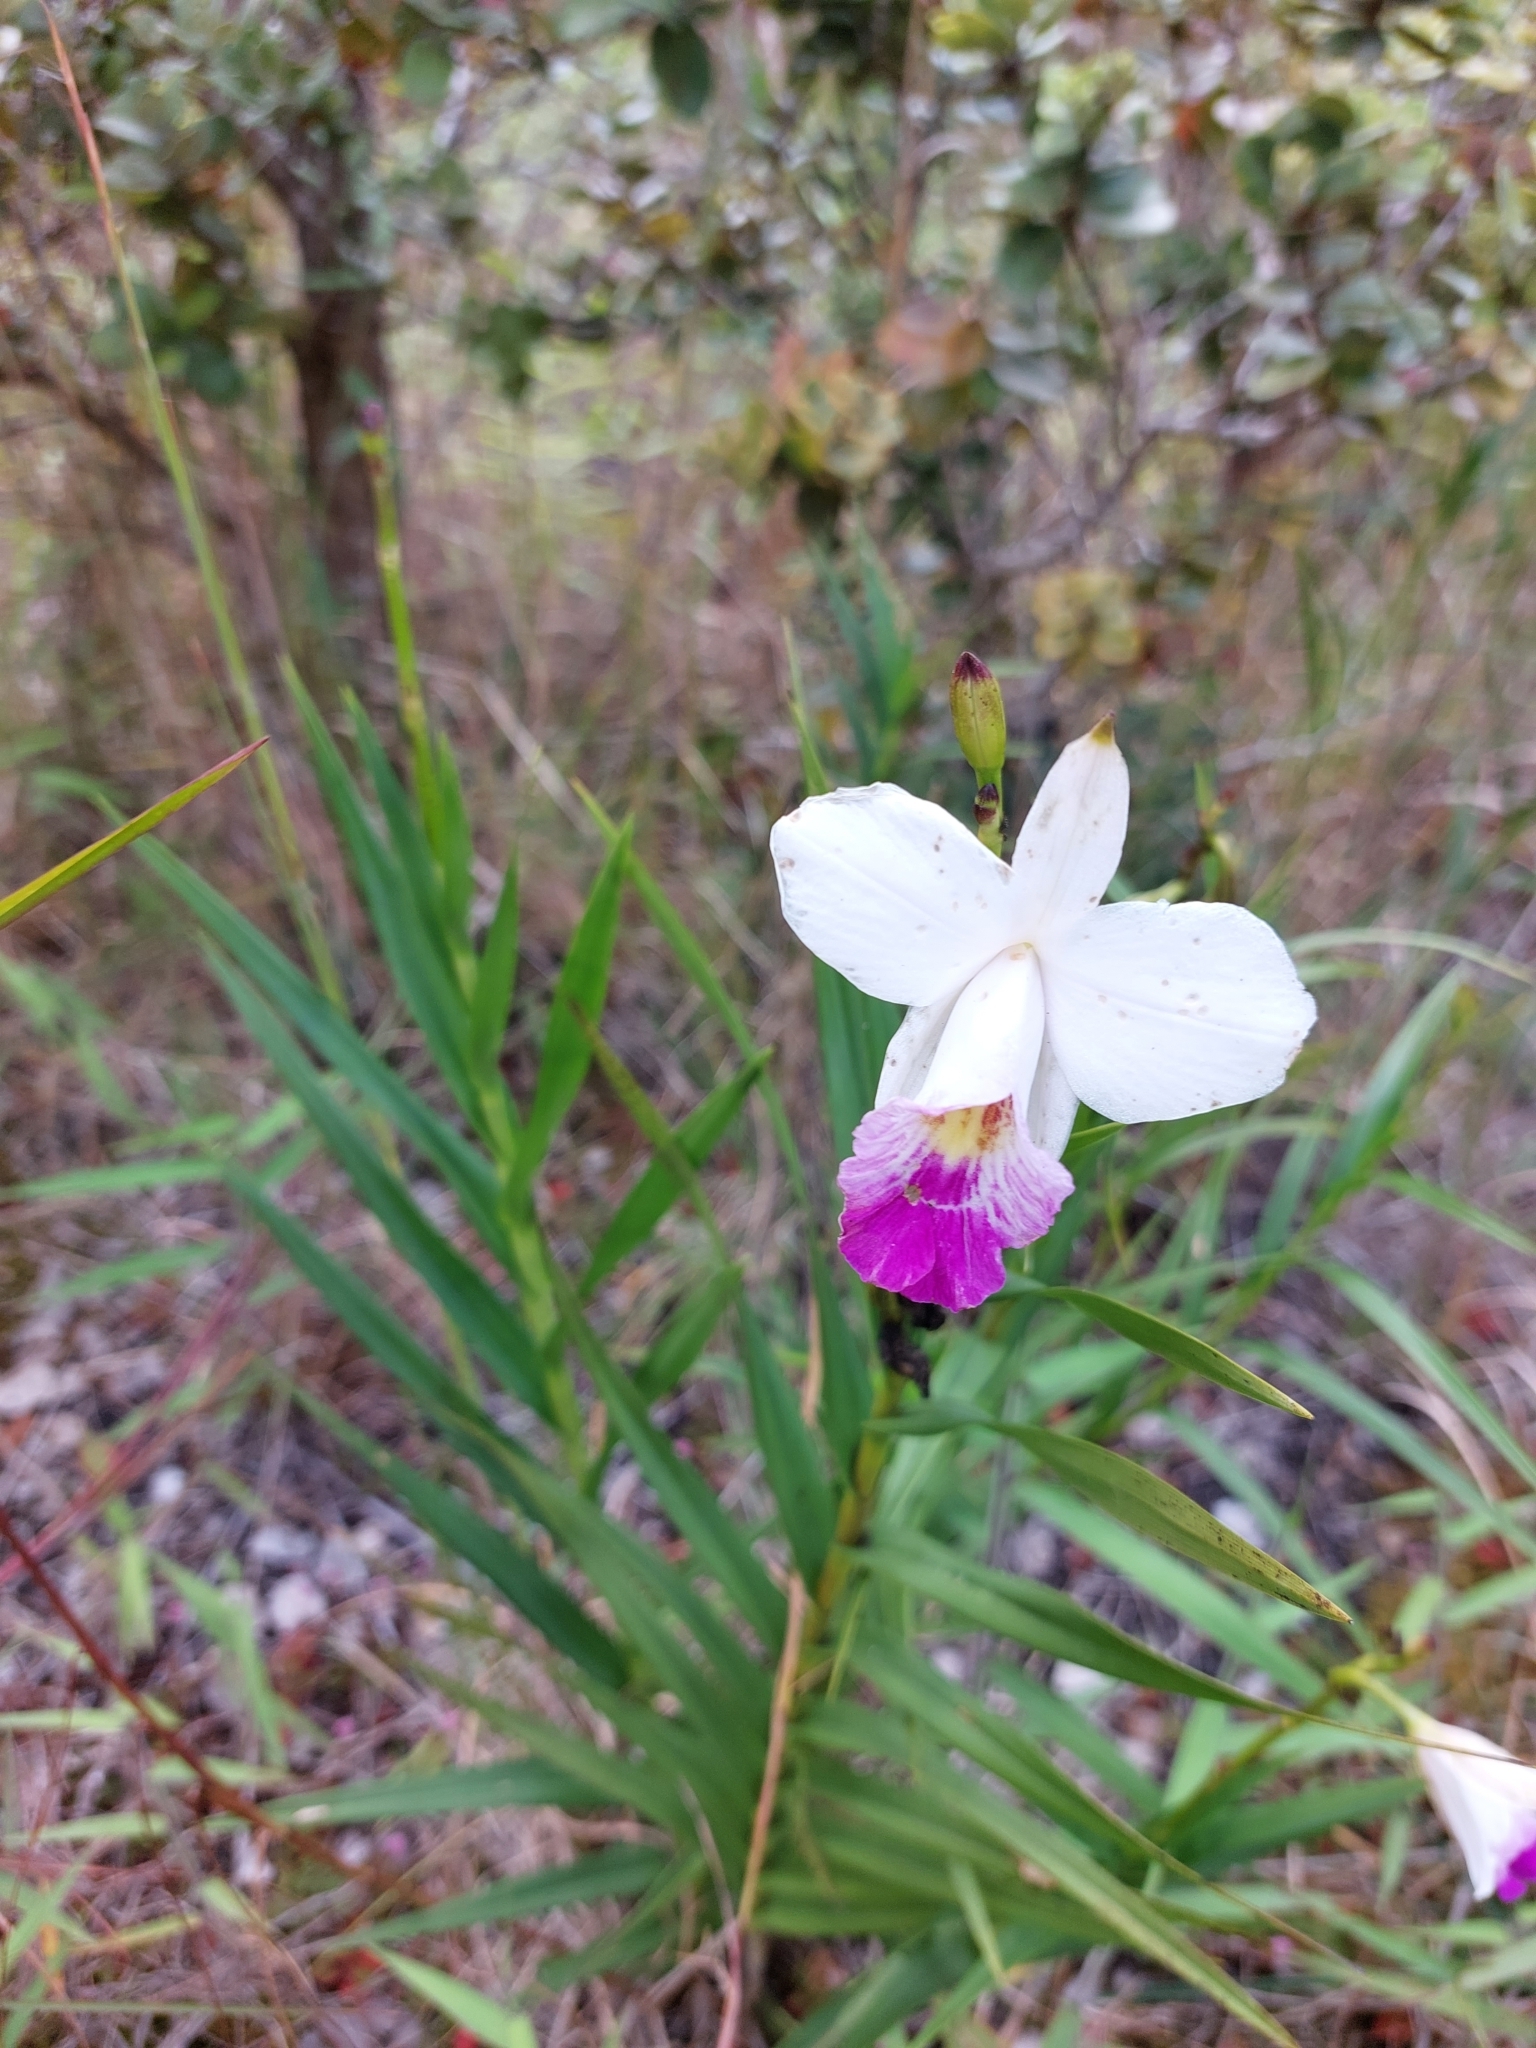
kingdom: Plantae
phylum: Tracheophyta
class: Liliopsida
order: Asparagales
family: Orchidaceae
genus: Arundina
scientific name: Arundina graminifolia
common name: Bamboo orchid
